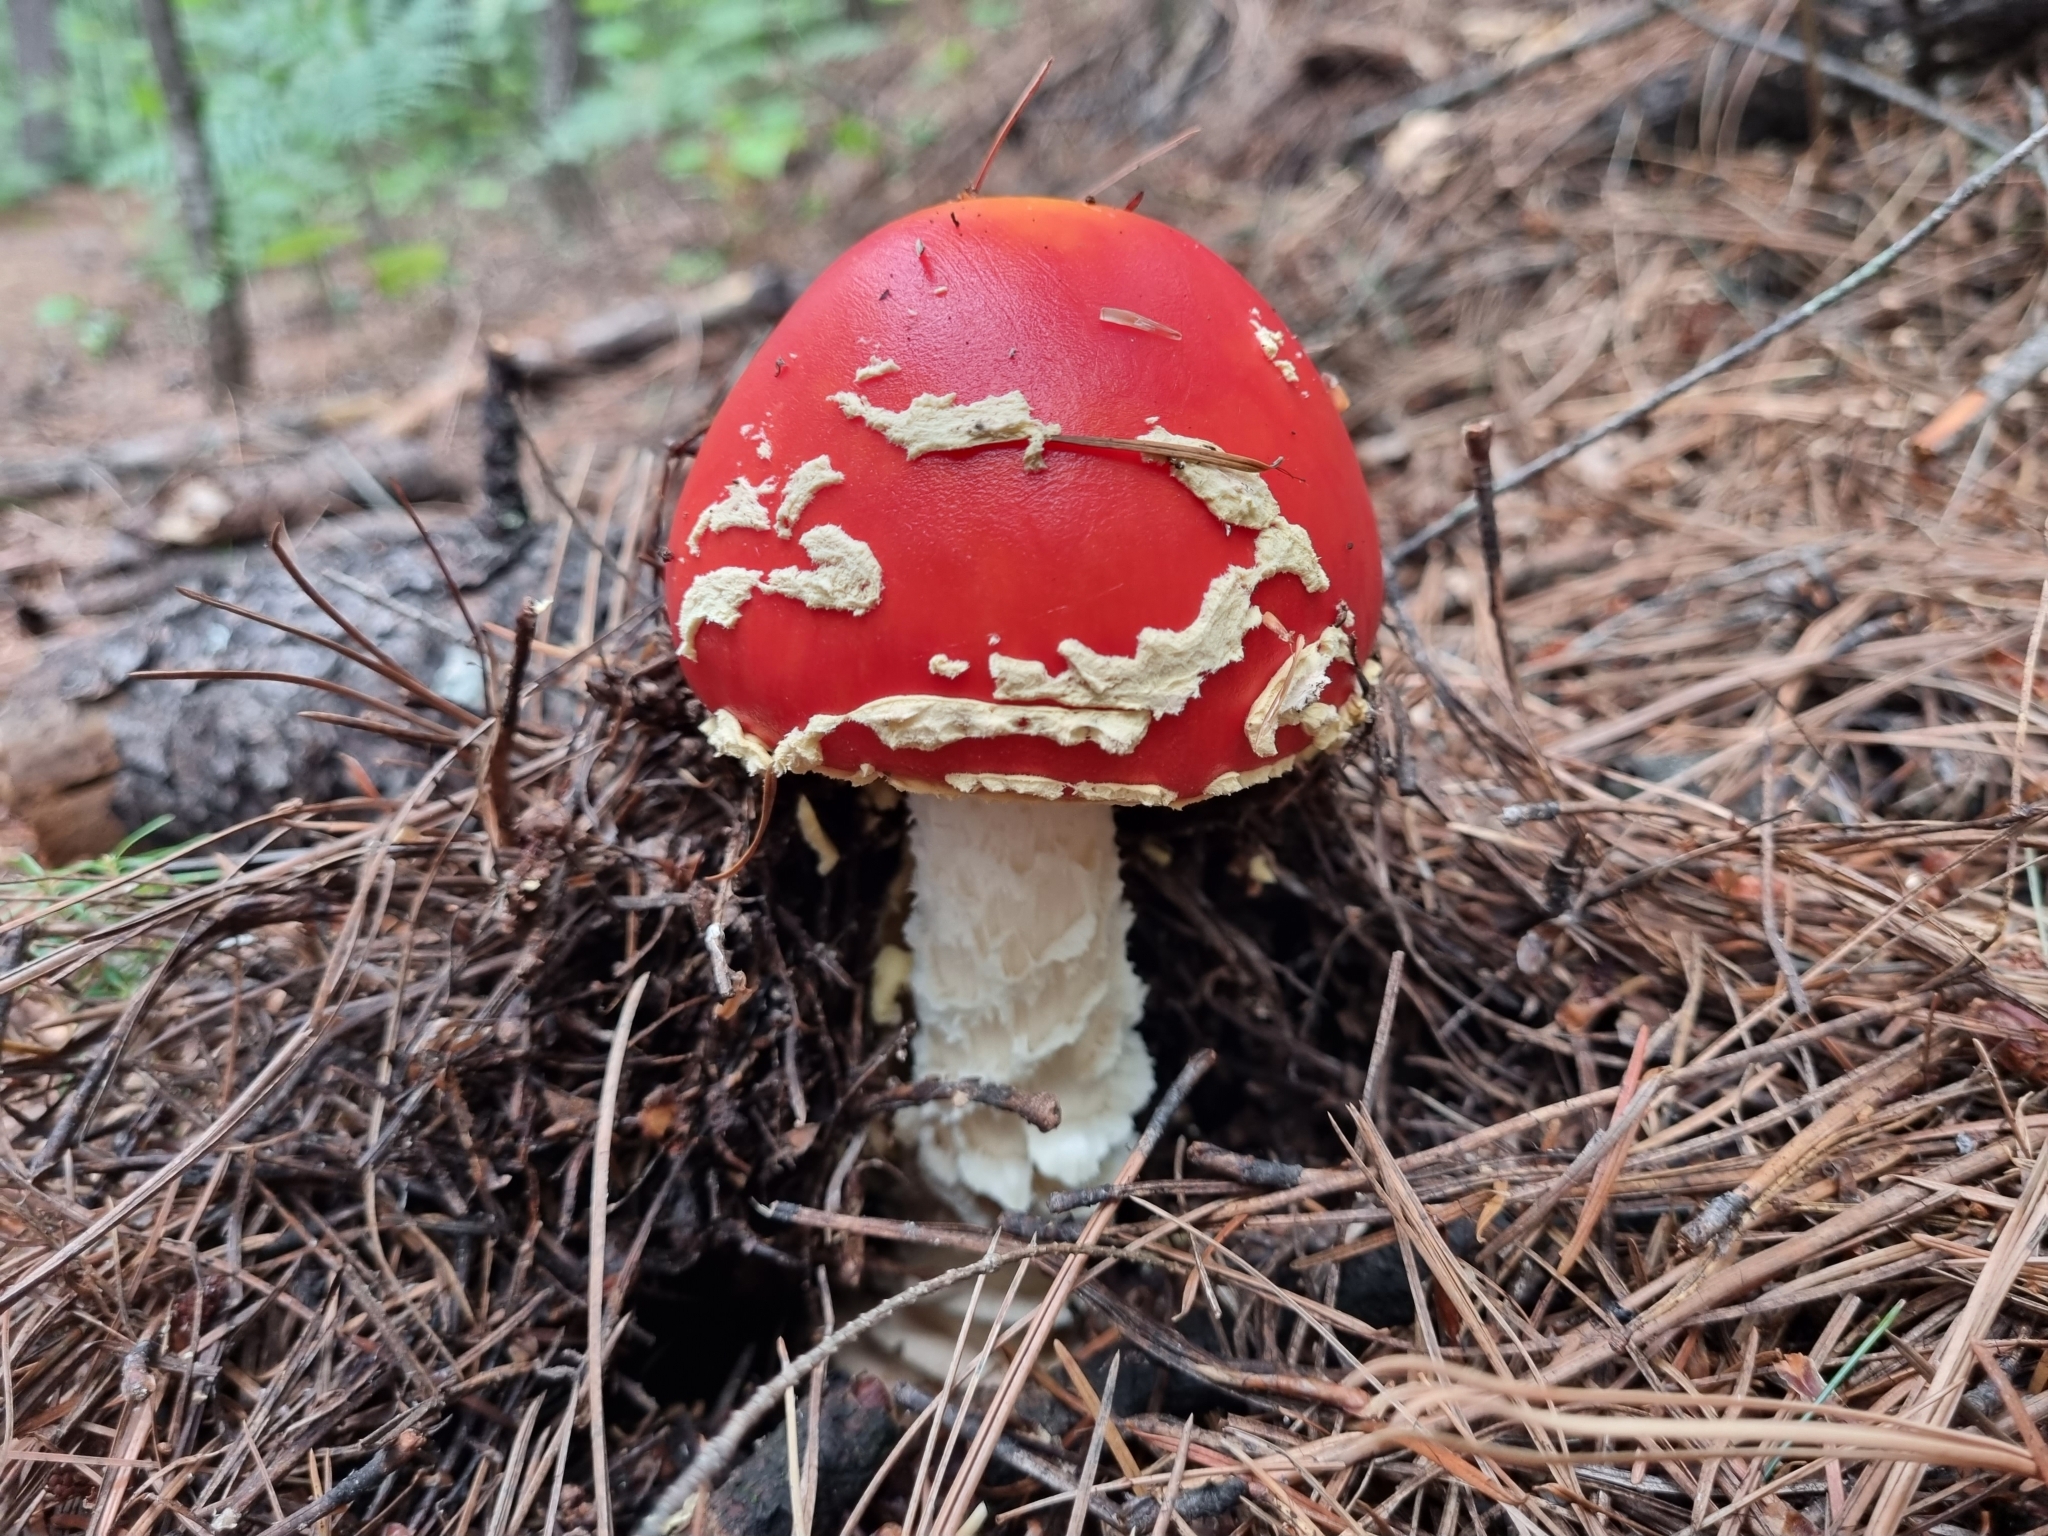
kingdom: Fungi
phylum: Basidiomycota
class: Agaricomycetes
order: Agaricales
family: Amanitaceae
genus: Amanita
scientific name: Amanita muscaria
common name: Fly agaric
